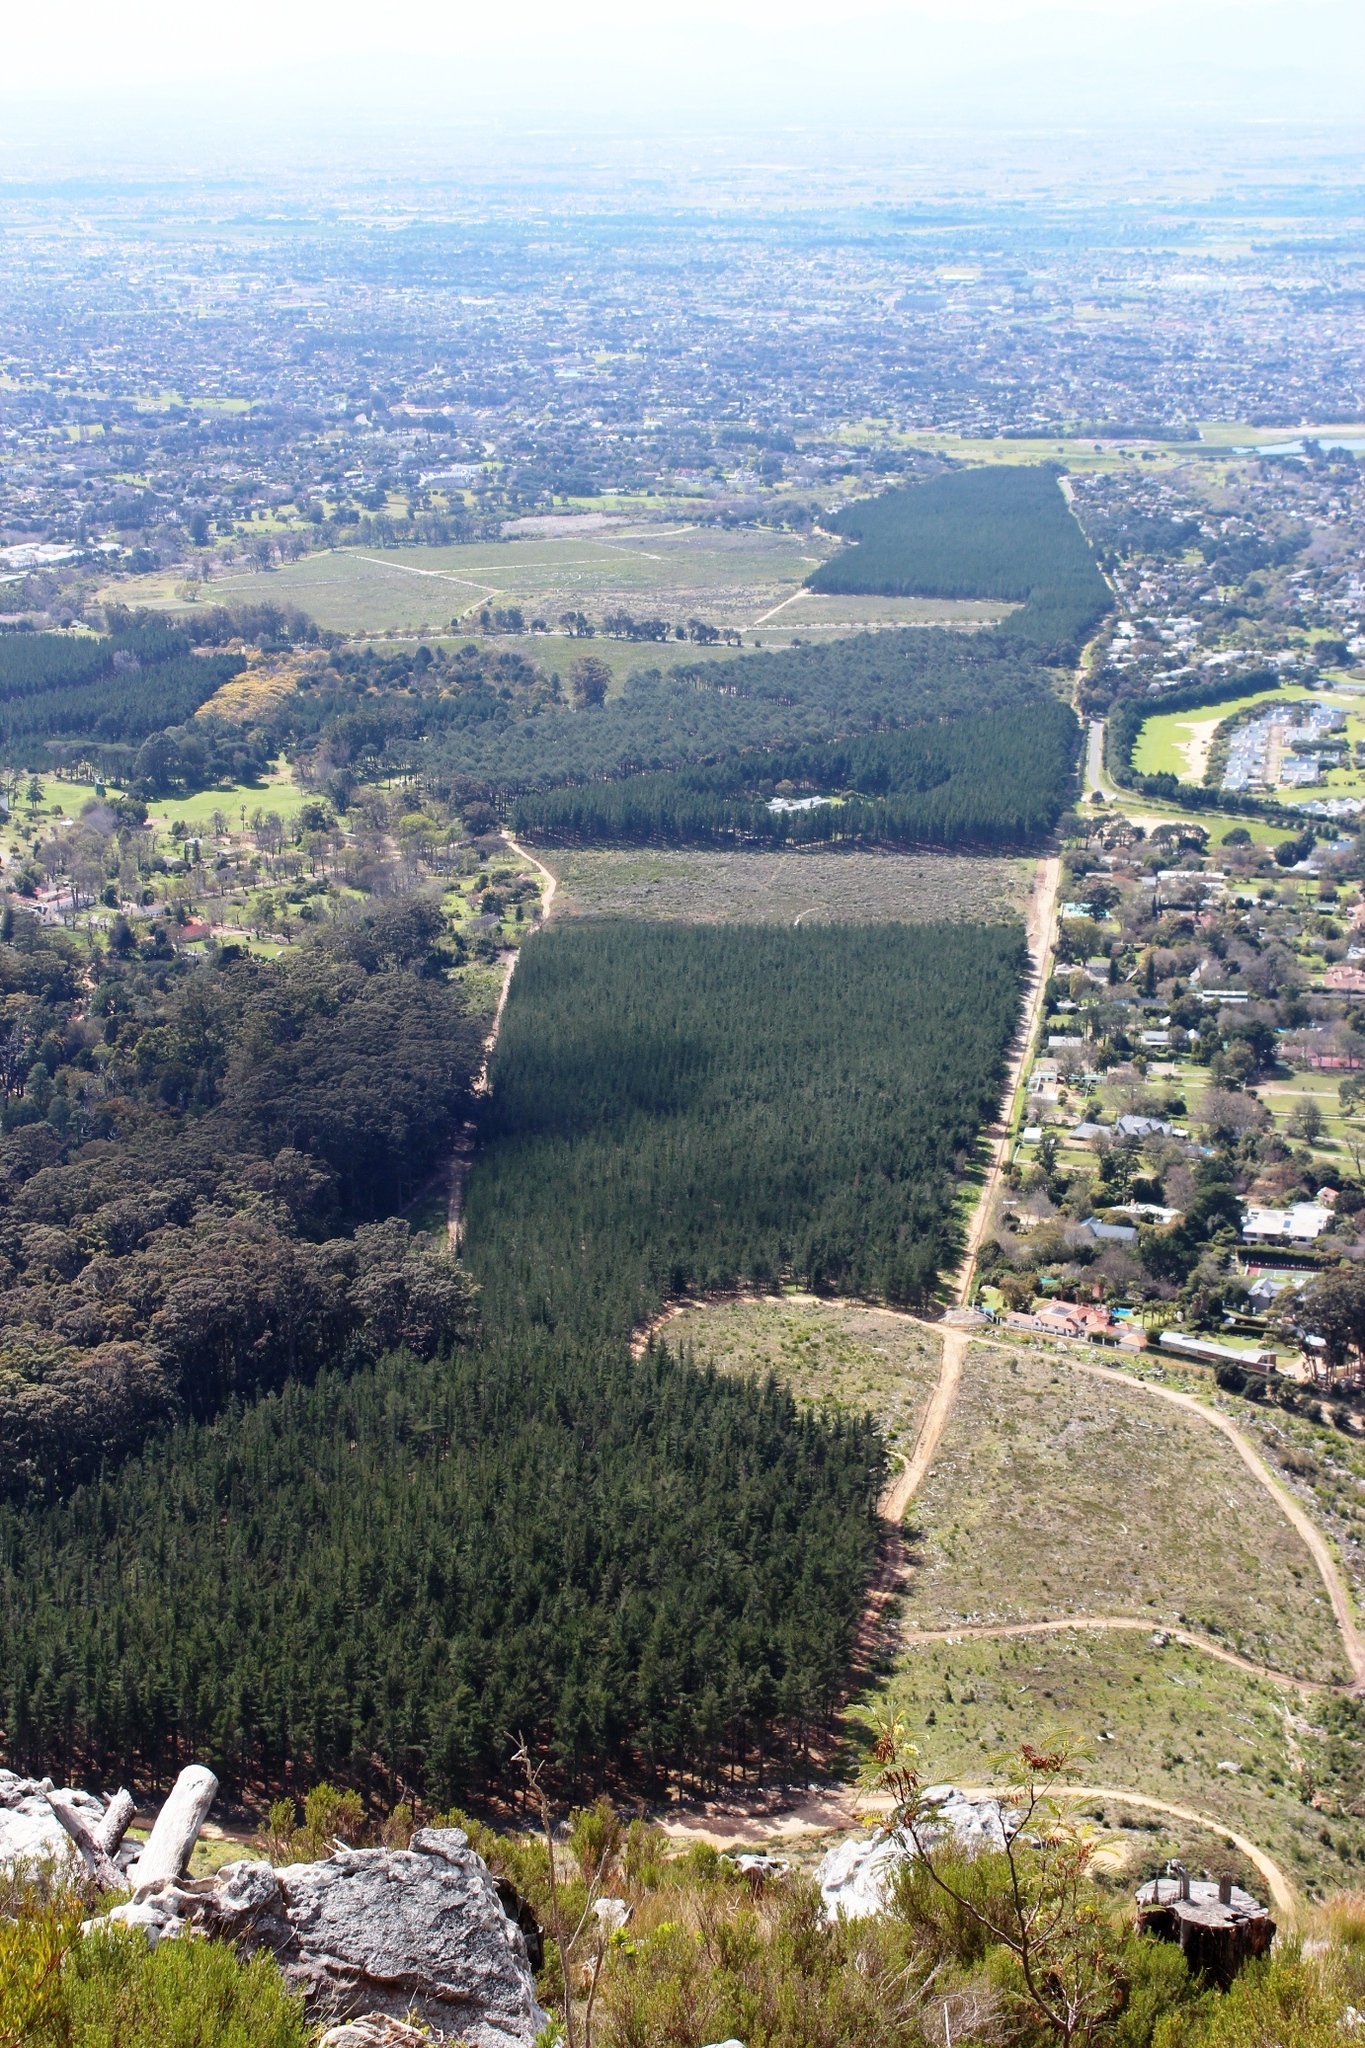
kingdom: Plantae
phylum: Tracheophyta
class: Pinopsida
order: Pinales
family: Pinaceae
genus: Pinus
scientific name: Pinus radiata
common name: Monterey pine
